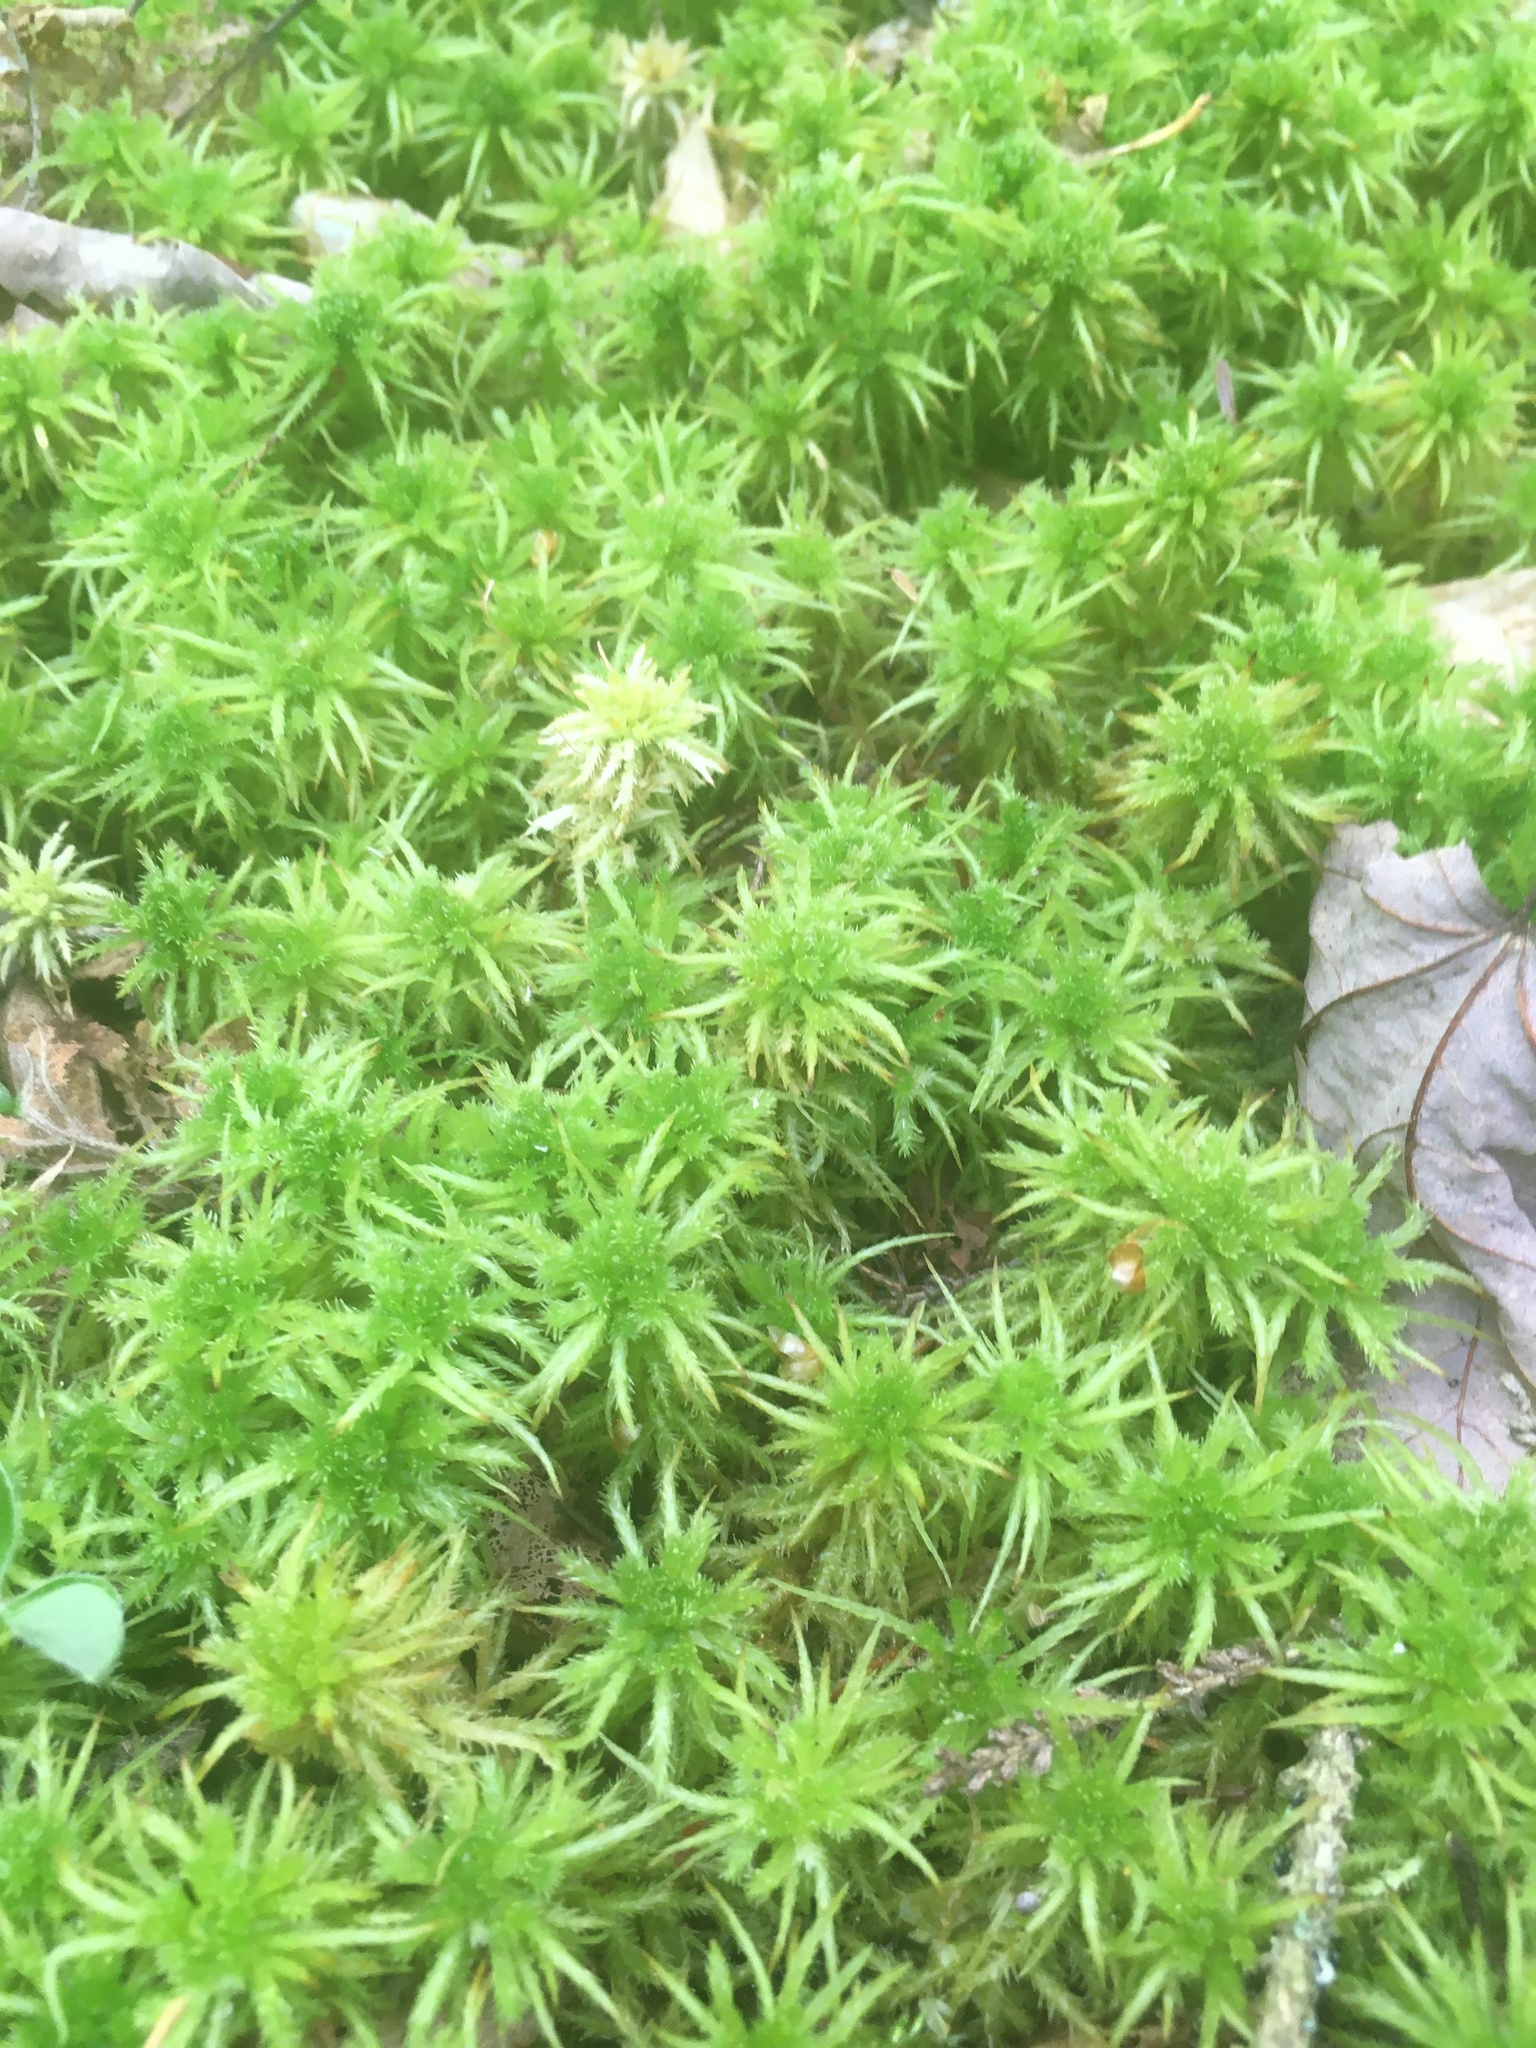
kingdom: Plantae
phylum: Bryophyta
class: Sphagnopsida
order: Sphagnales
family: Sphagnaceae
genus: Sphagnum
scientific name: Sphagnum squarrosum
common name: Shaggy peat moss
